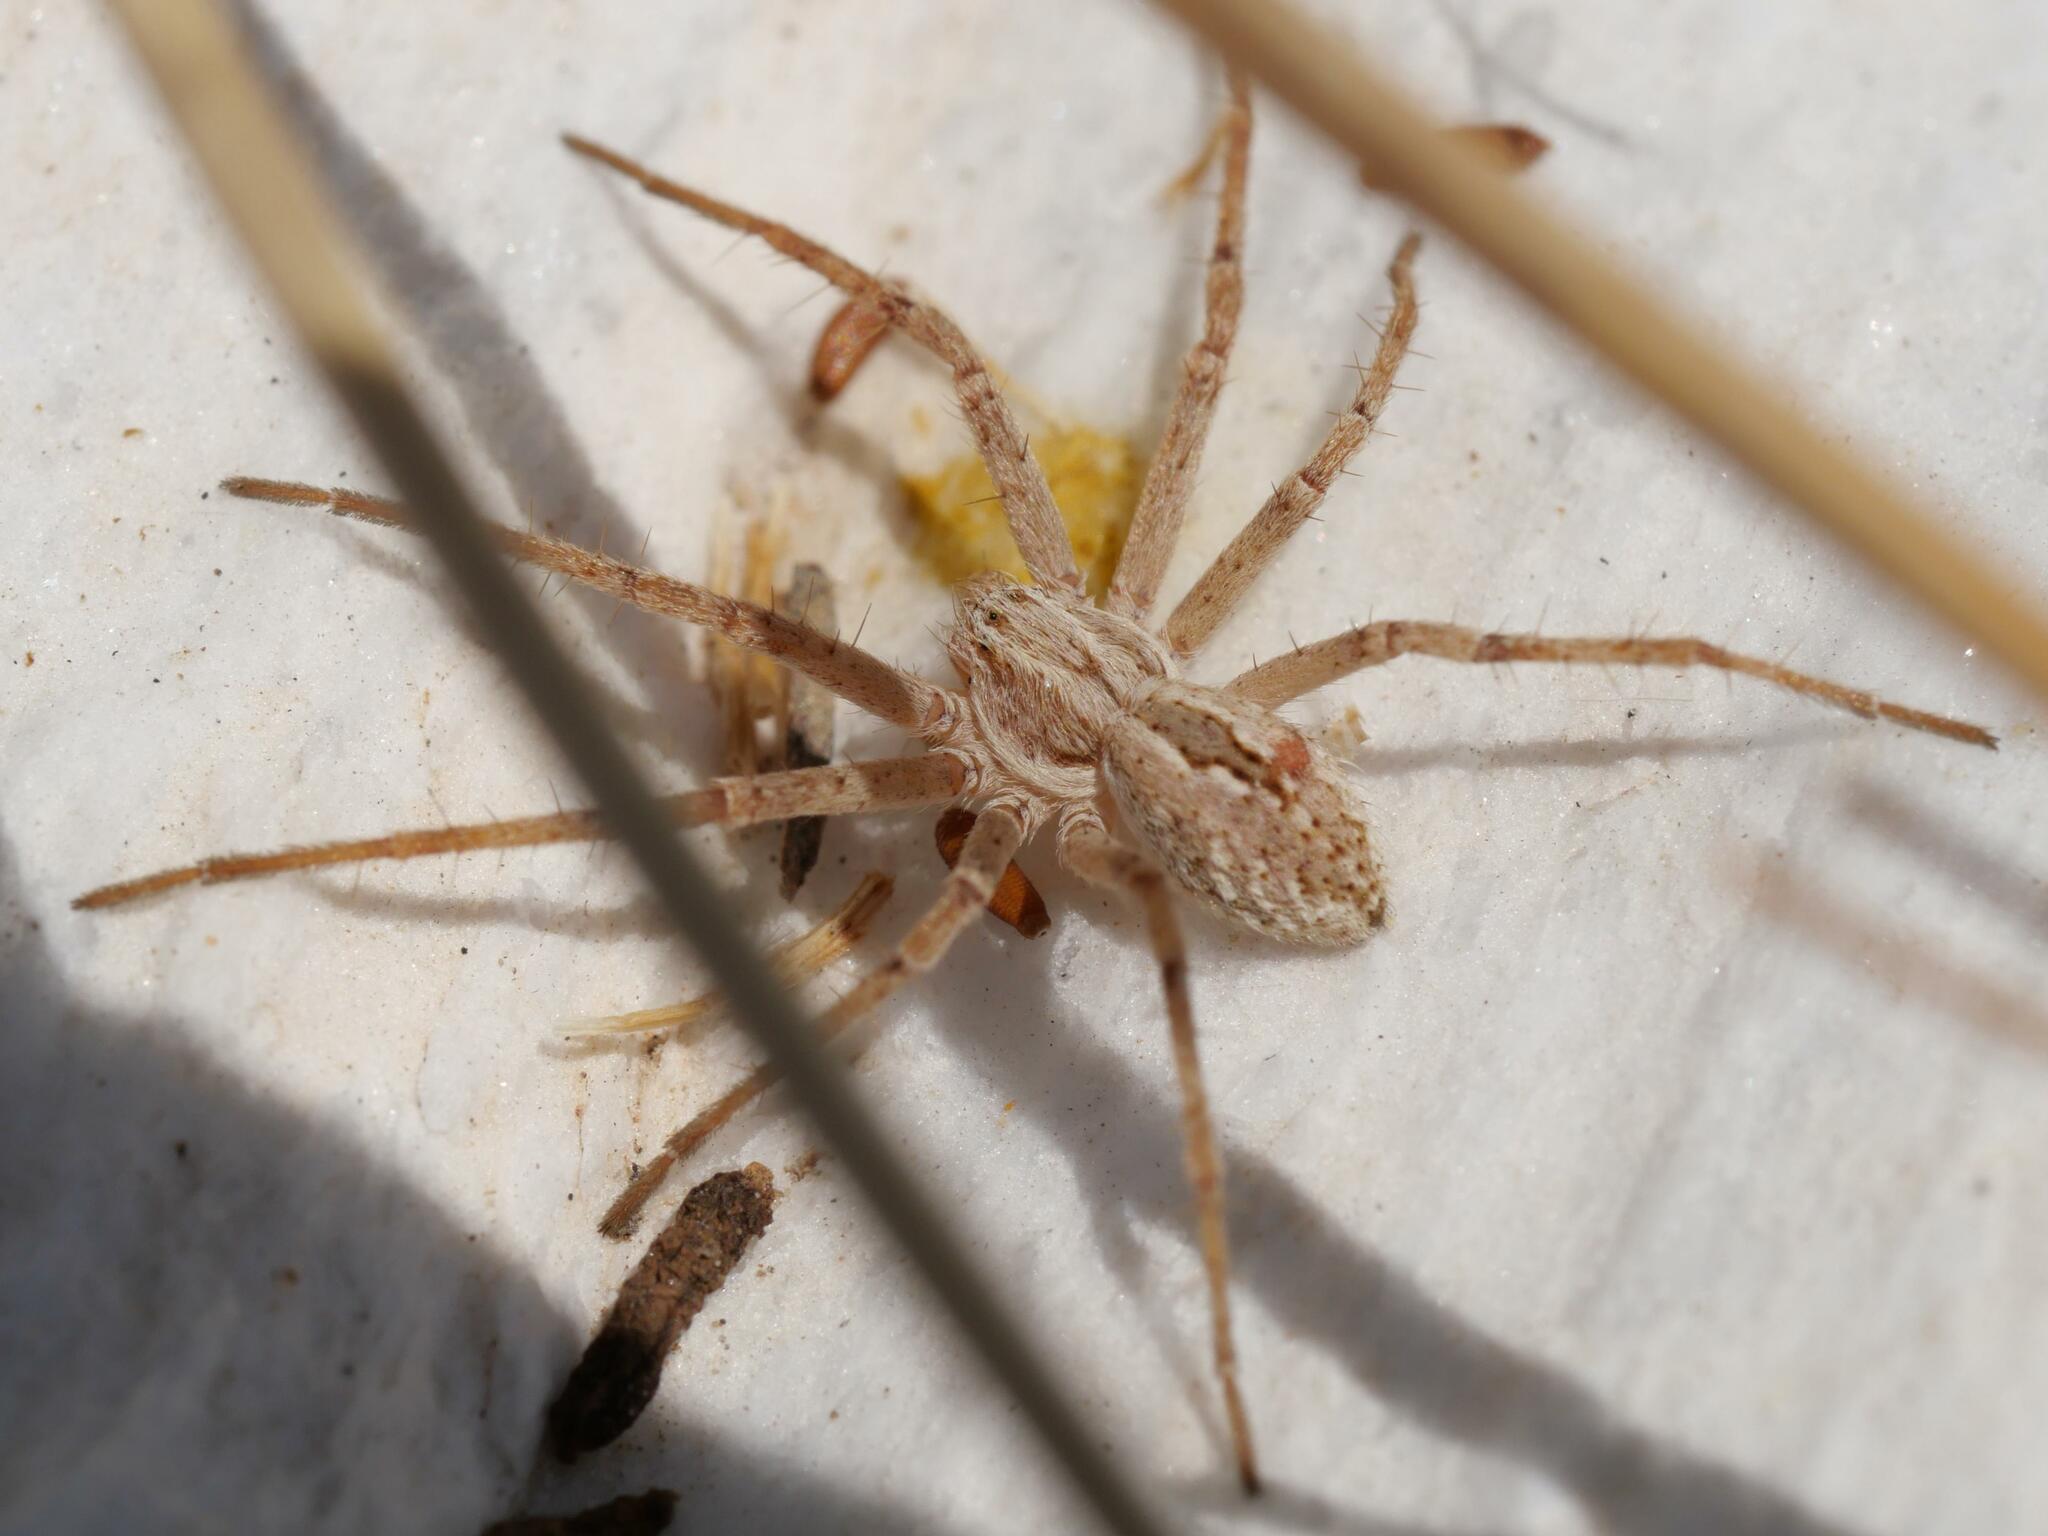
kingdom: Animalia
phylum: Arthropoda
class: Arachnida
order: Araneae
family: Philodromidae
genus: Thanatus
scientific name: Thanatus
